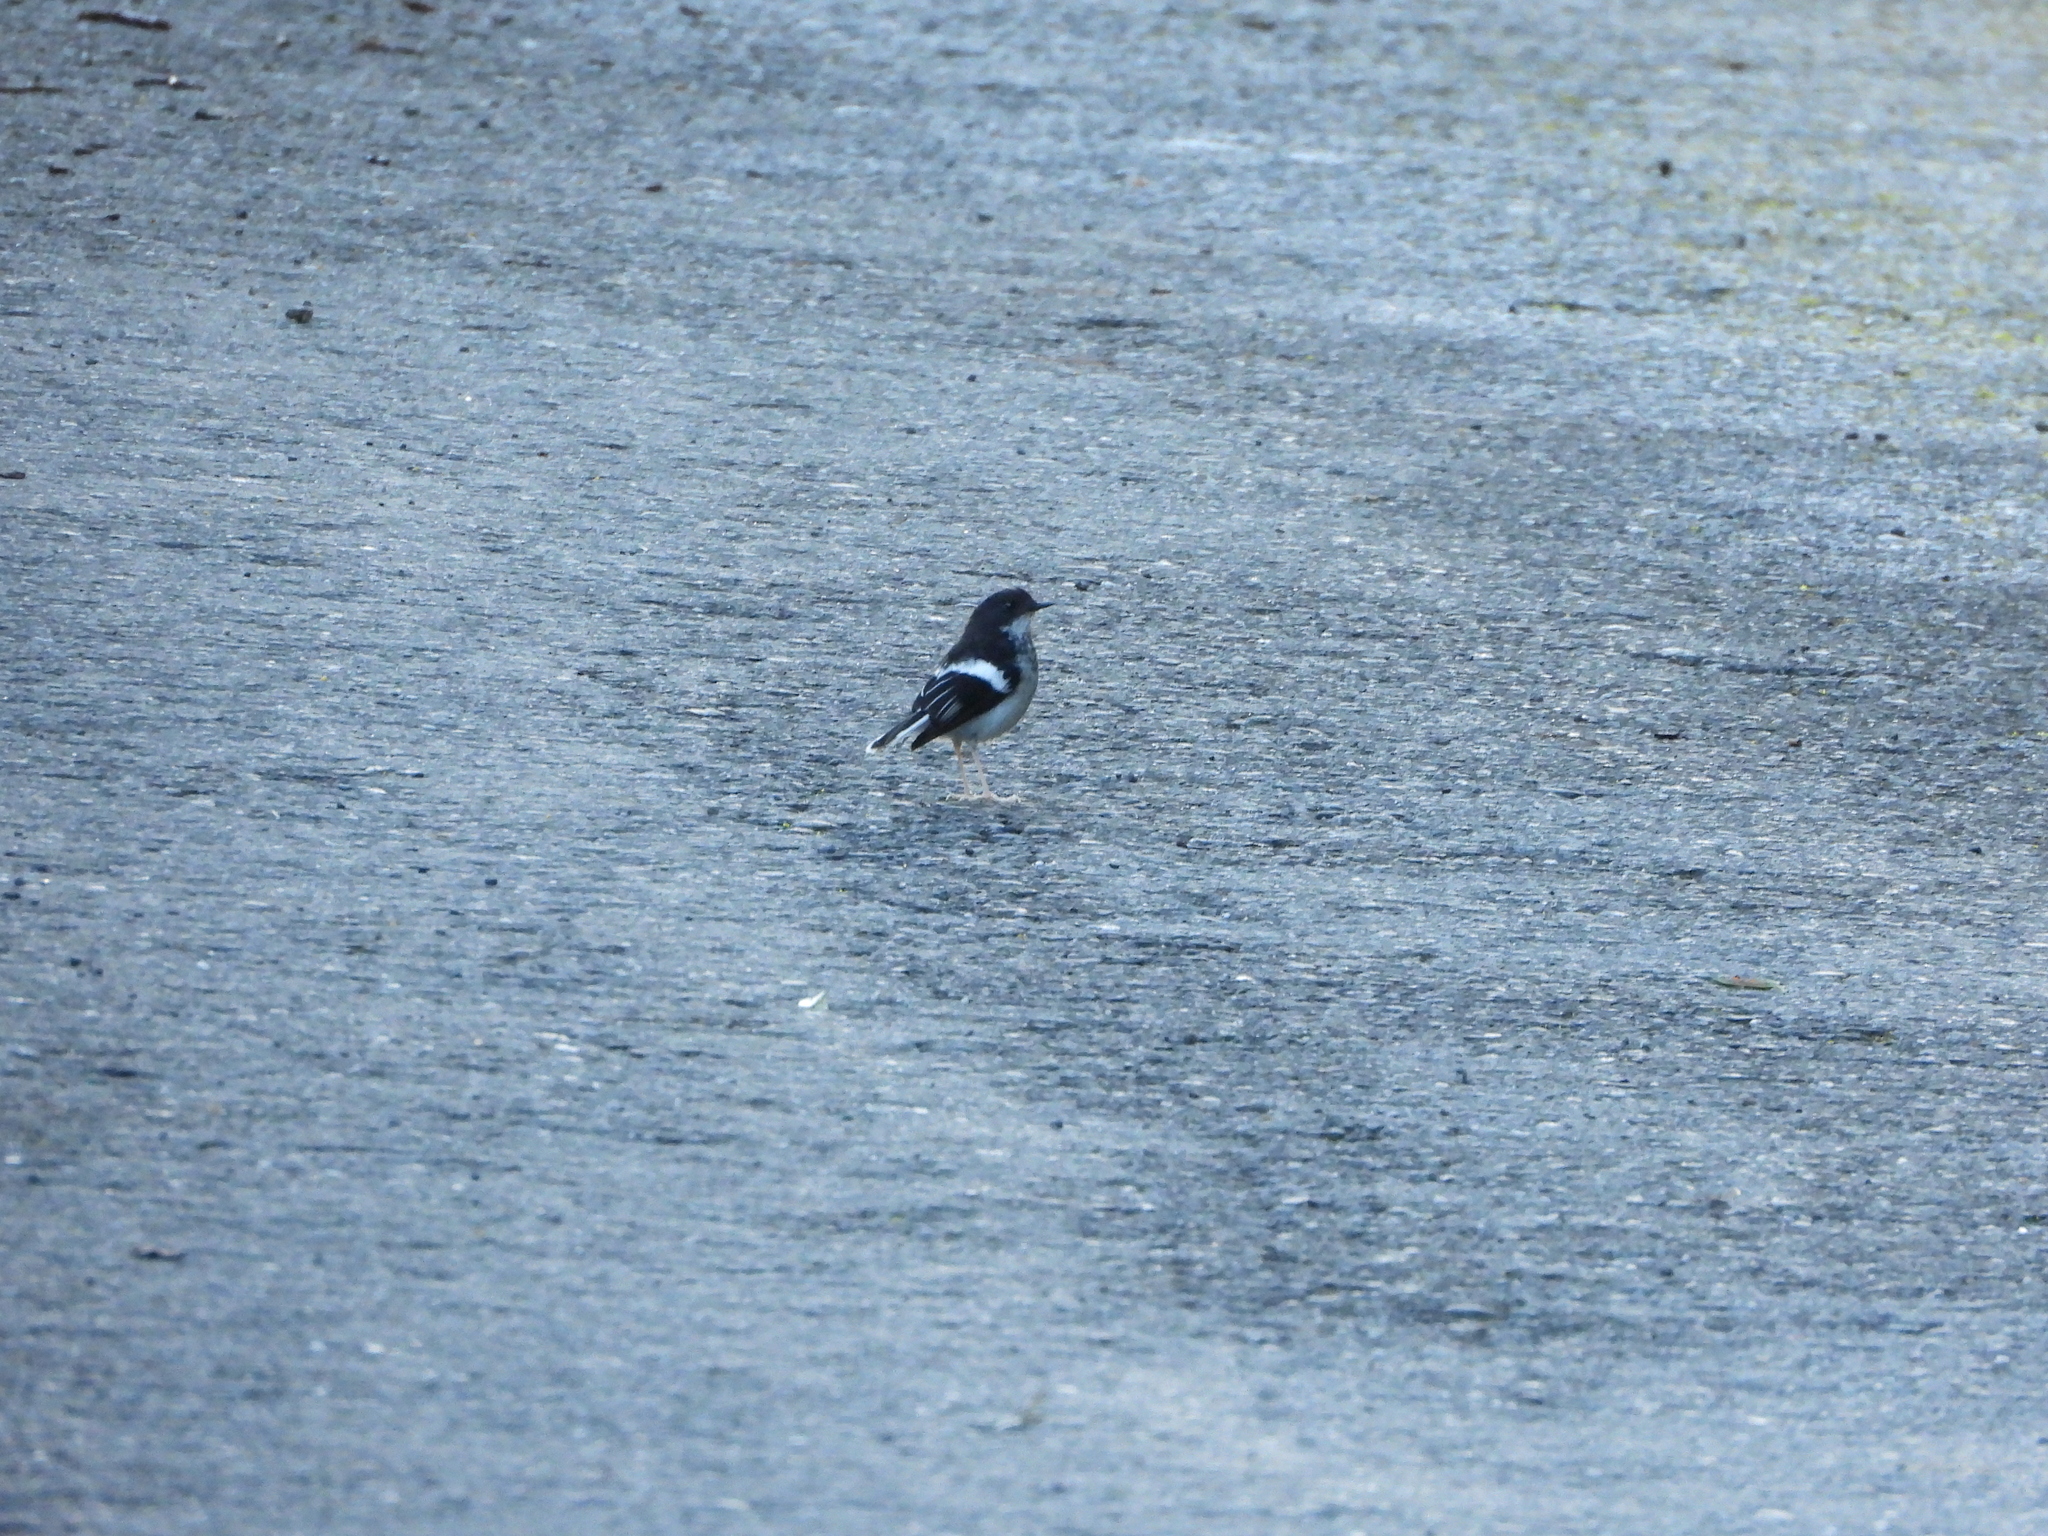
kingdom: Animalia
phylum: Chordata
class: Aves
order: Passeriformes
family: Muscicapidae
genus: Enicurus
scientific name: Enicurus scouleri
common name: Little forktail
